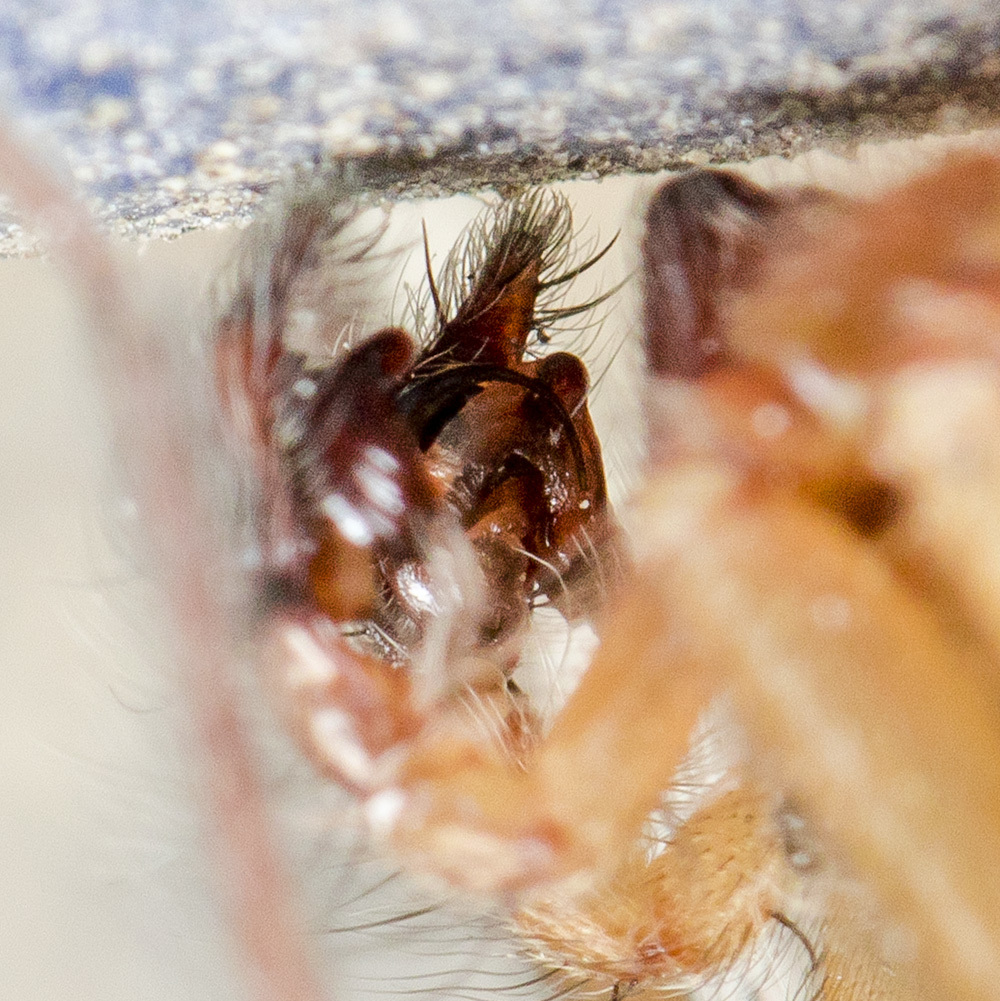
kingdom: Animalia
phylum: Arthropoda
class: Arachnida
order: Araneae
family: Agelenidae
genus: Eratigena
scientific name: Eratigena agrestis
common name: Hobo spider
